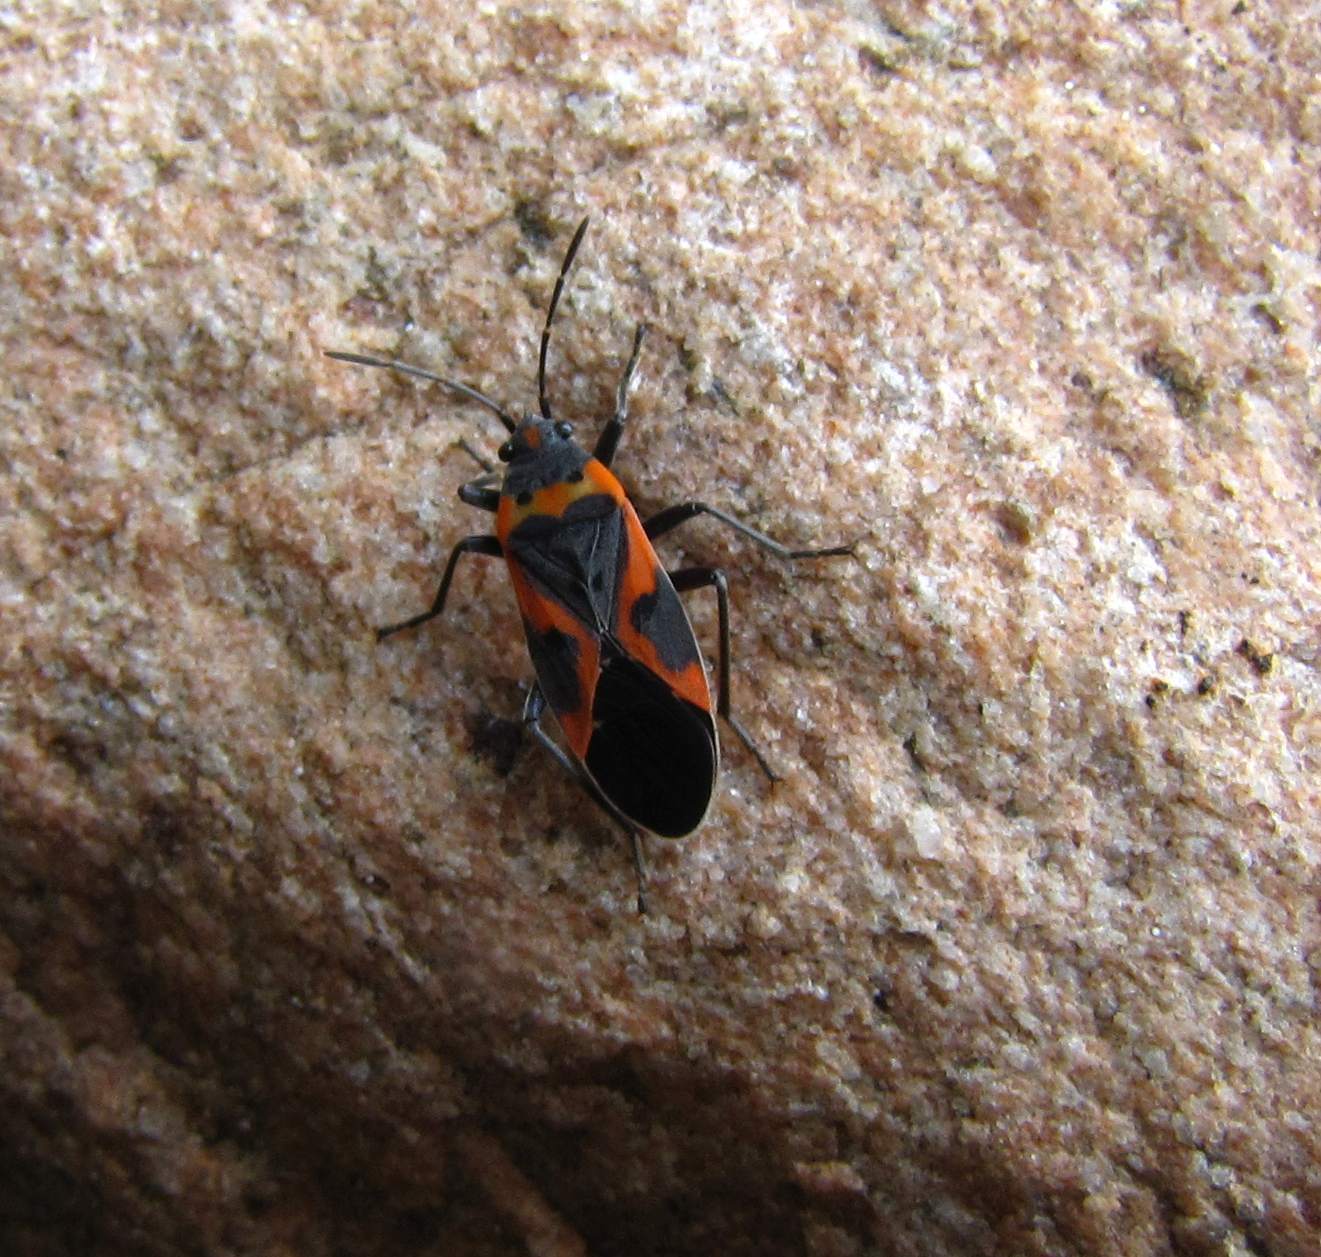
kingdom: Animalia
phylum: Arthropoda
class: Insecta
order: Hemiptera
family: Lygaeidae
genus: Lygaeus
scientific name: Lygaeus kalmii
